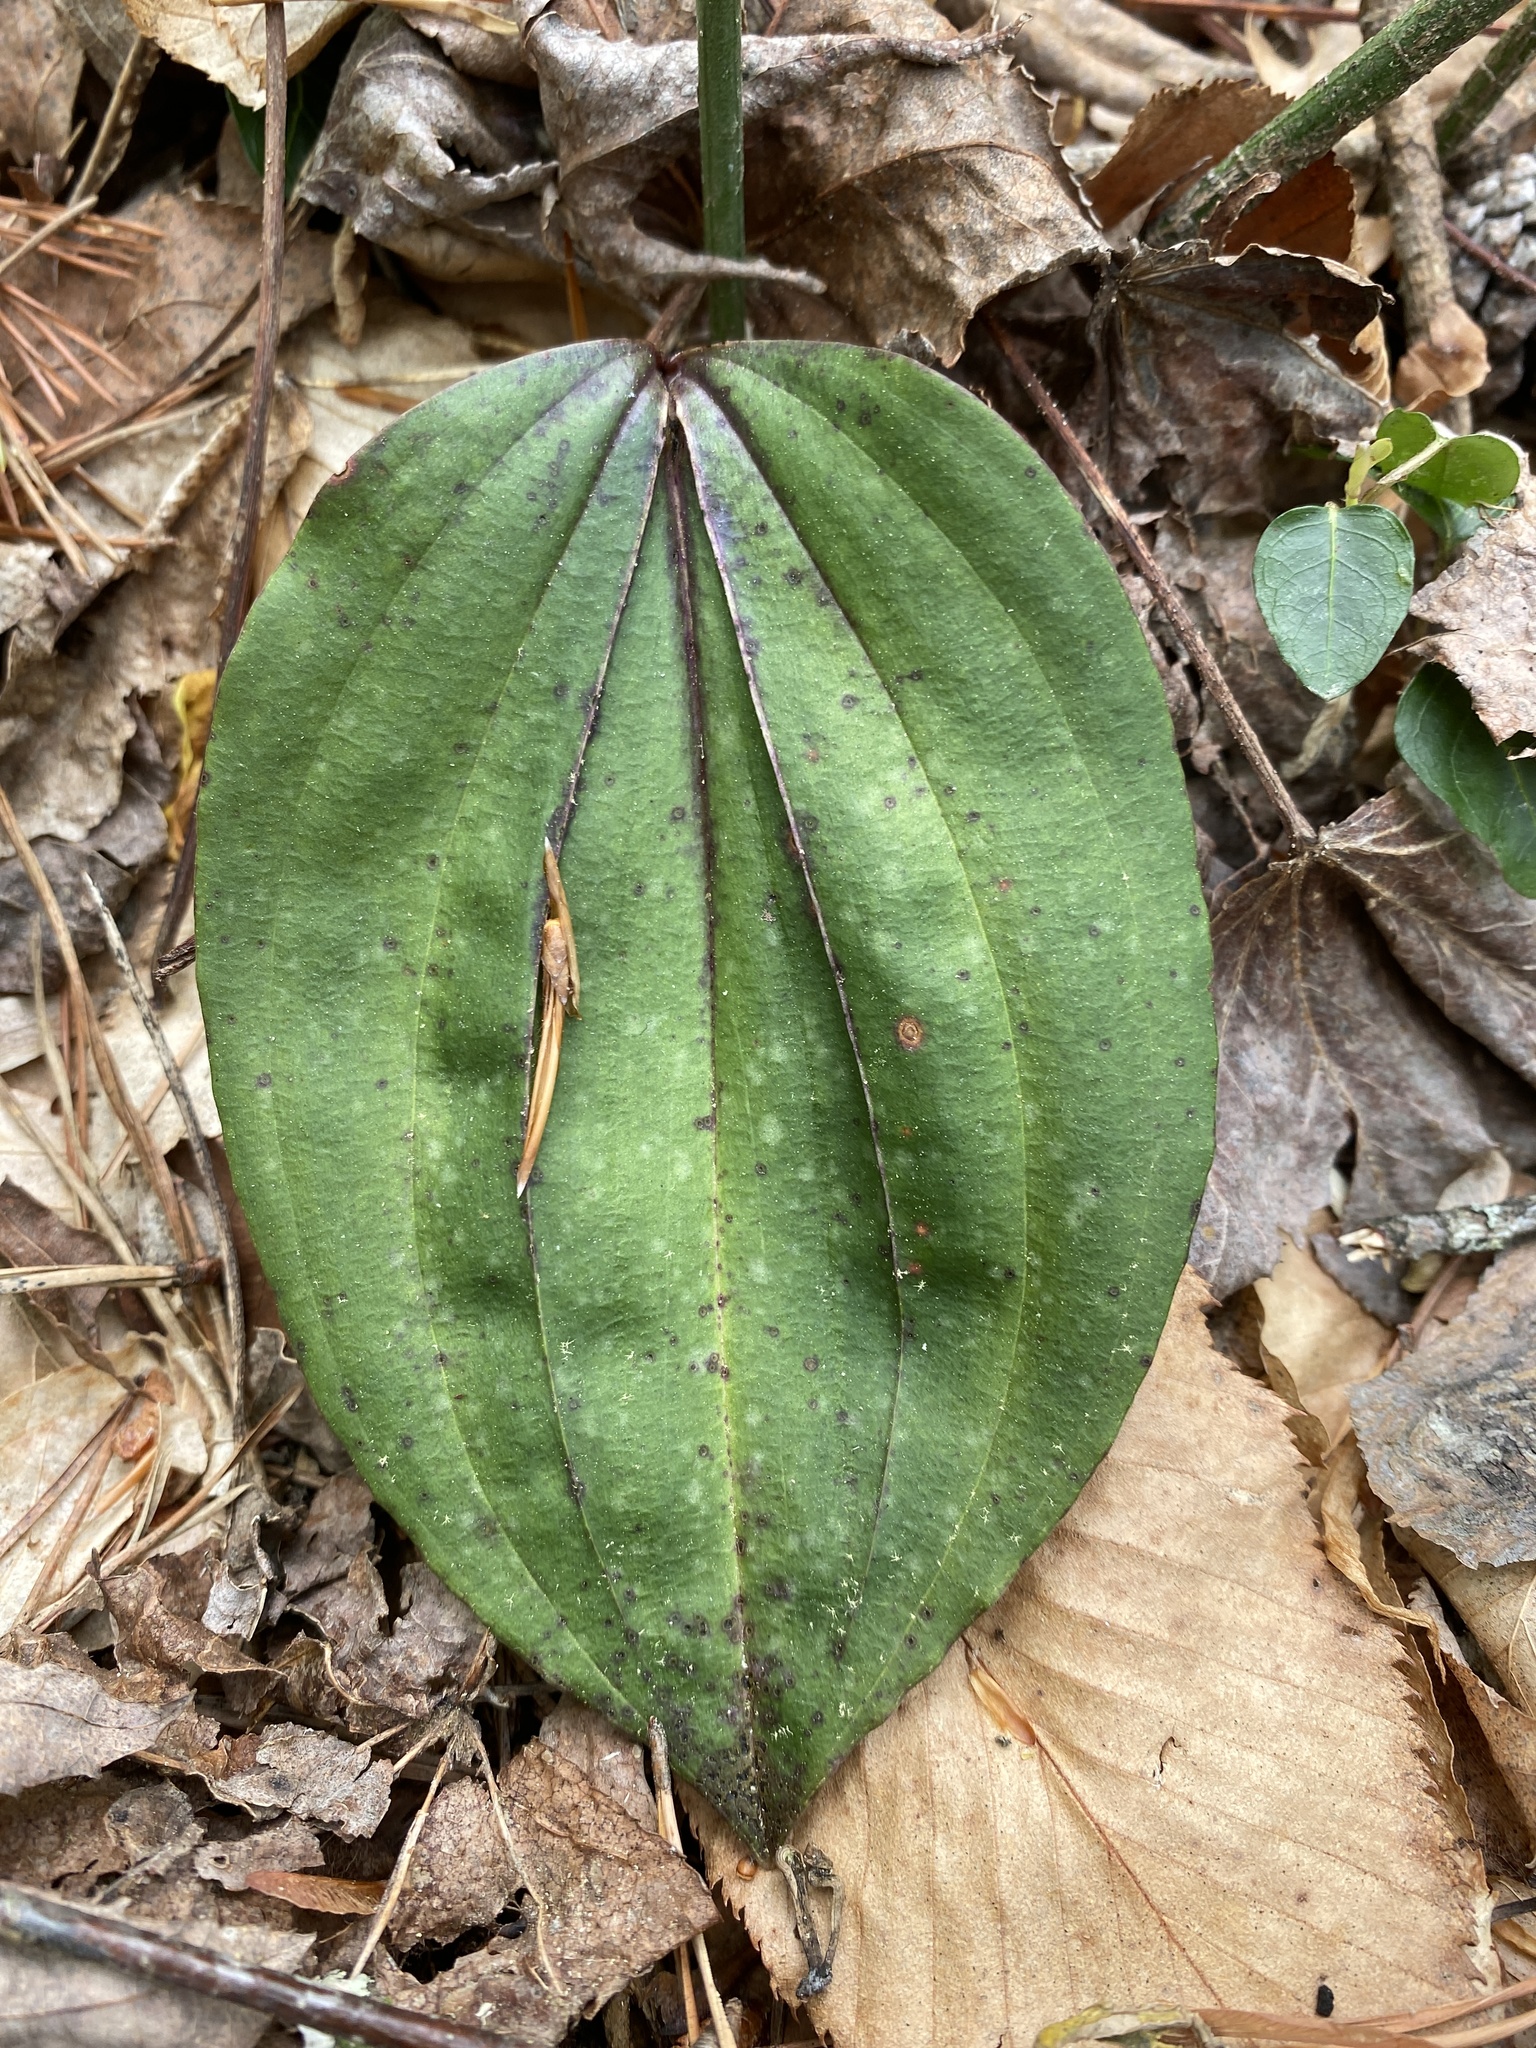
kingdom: Plantae
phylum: Tracheophyta
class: Liliopsida
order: Asparagales
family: Orchidaceae
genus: Tipularia
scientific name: Tipularia discolor
